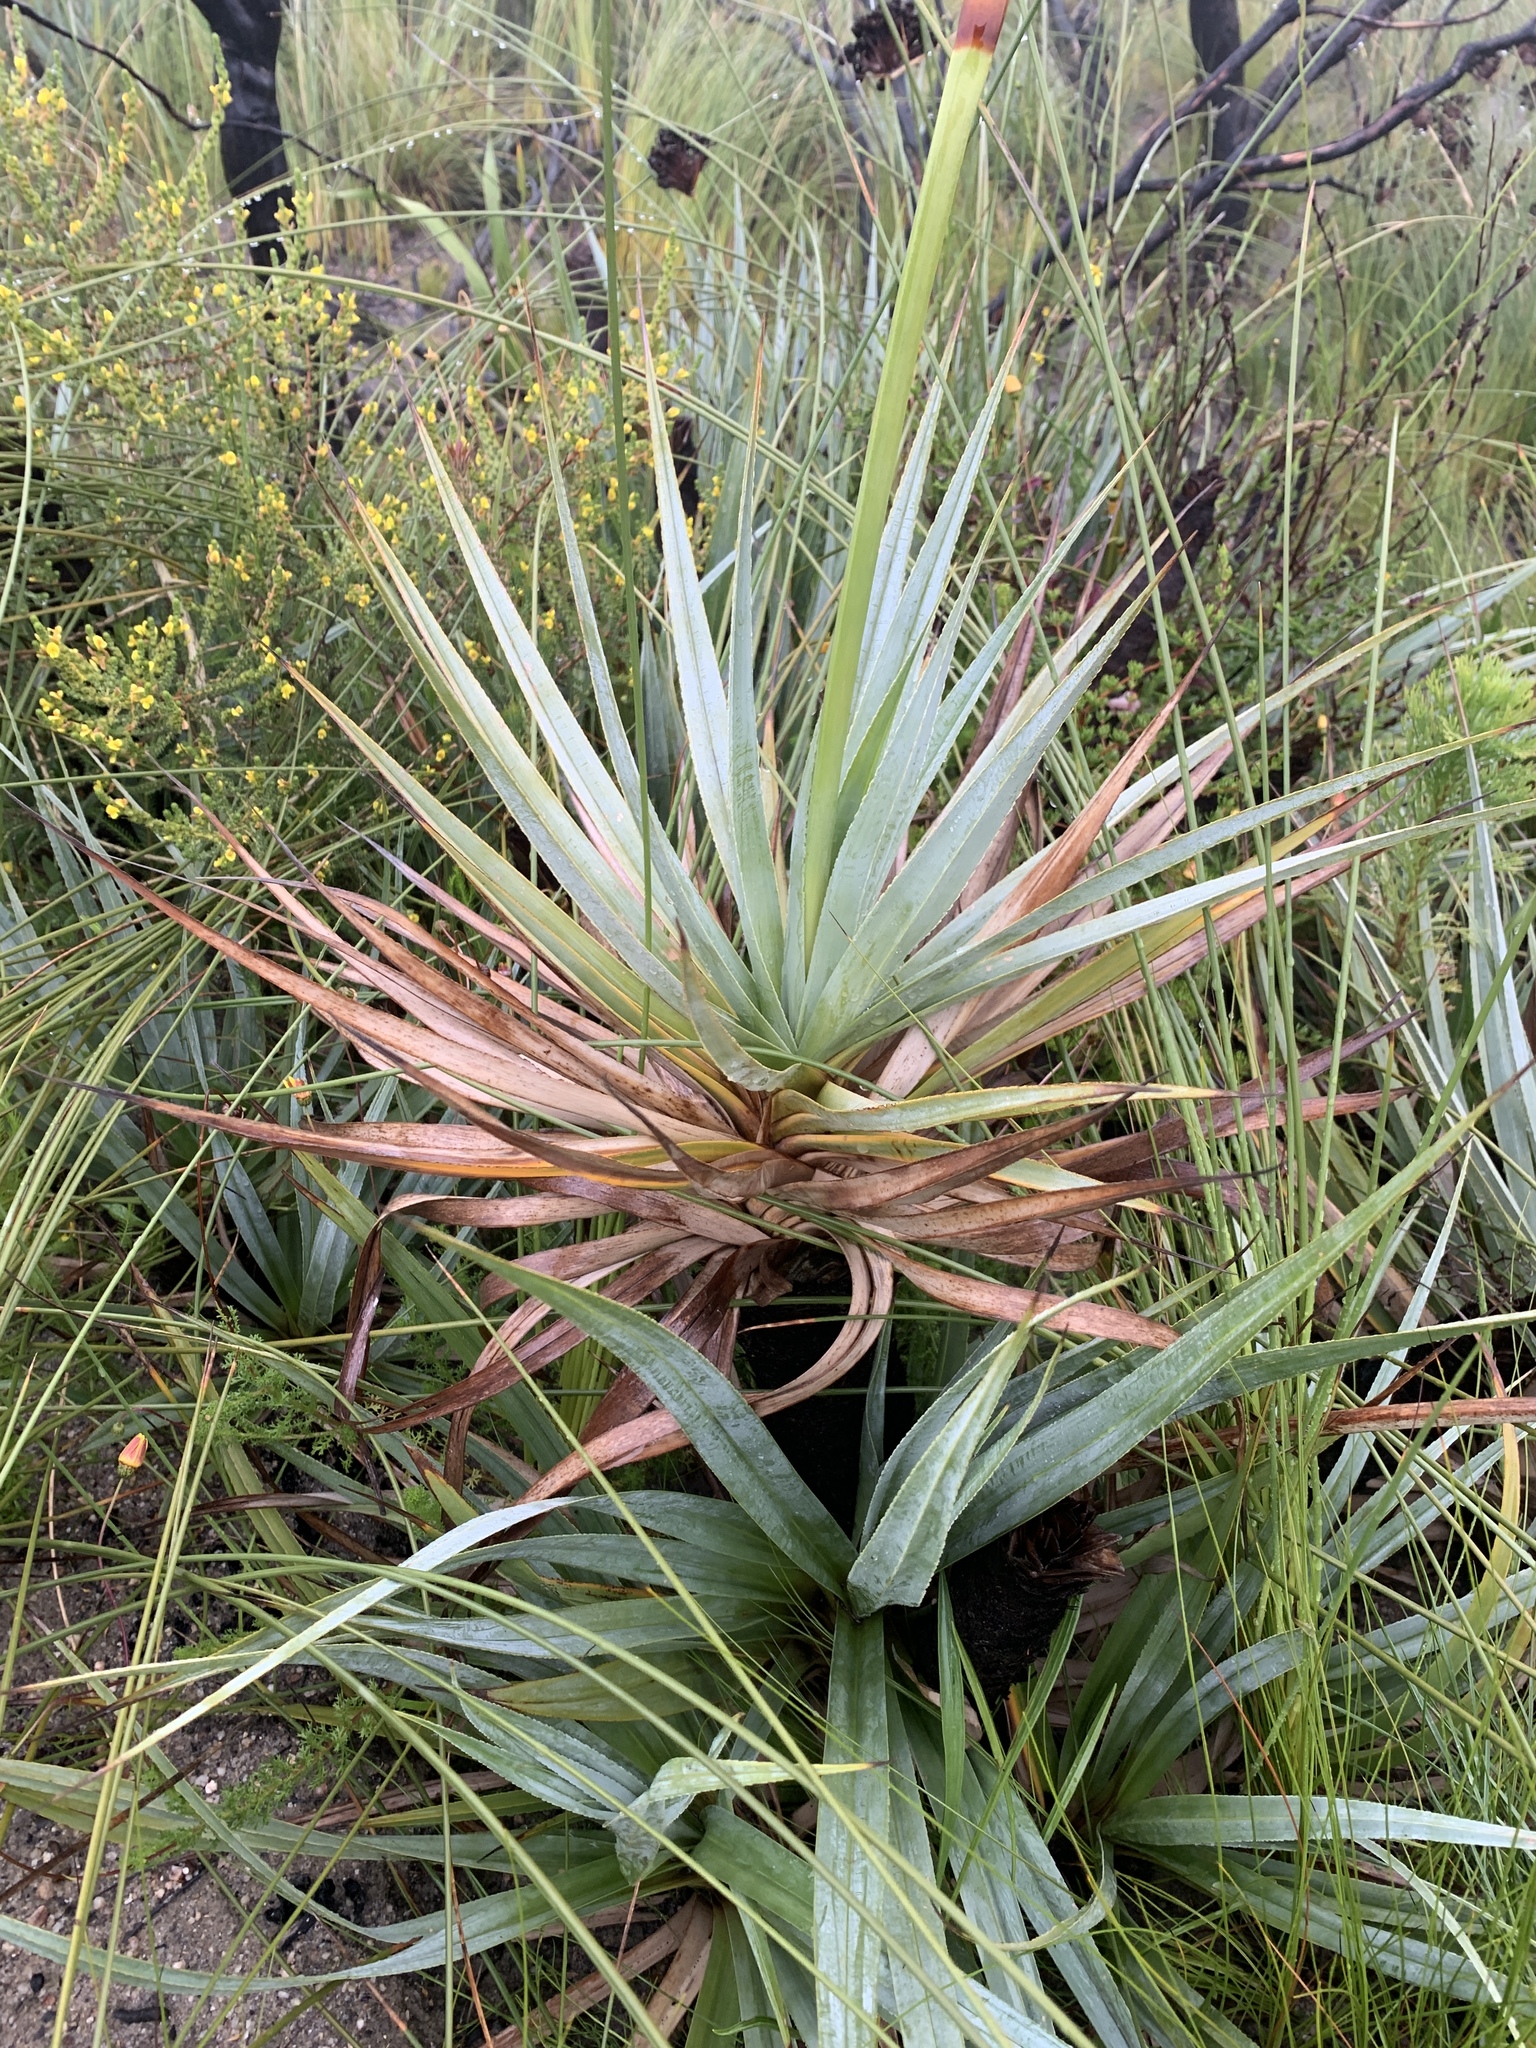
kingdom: Plantae
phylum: Tracheophyta
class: Liliopsida
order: Poales
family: Thurniaceae
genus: Prionium
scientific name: Prionium serratum
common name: Palmiet
